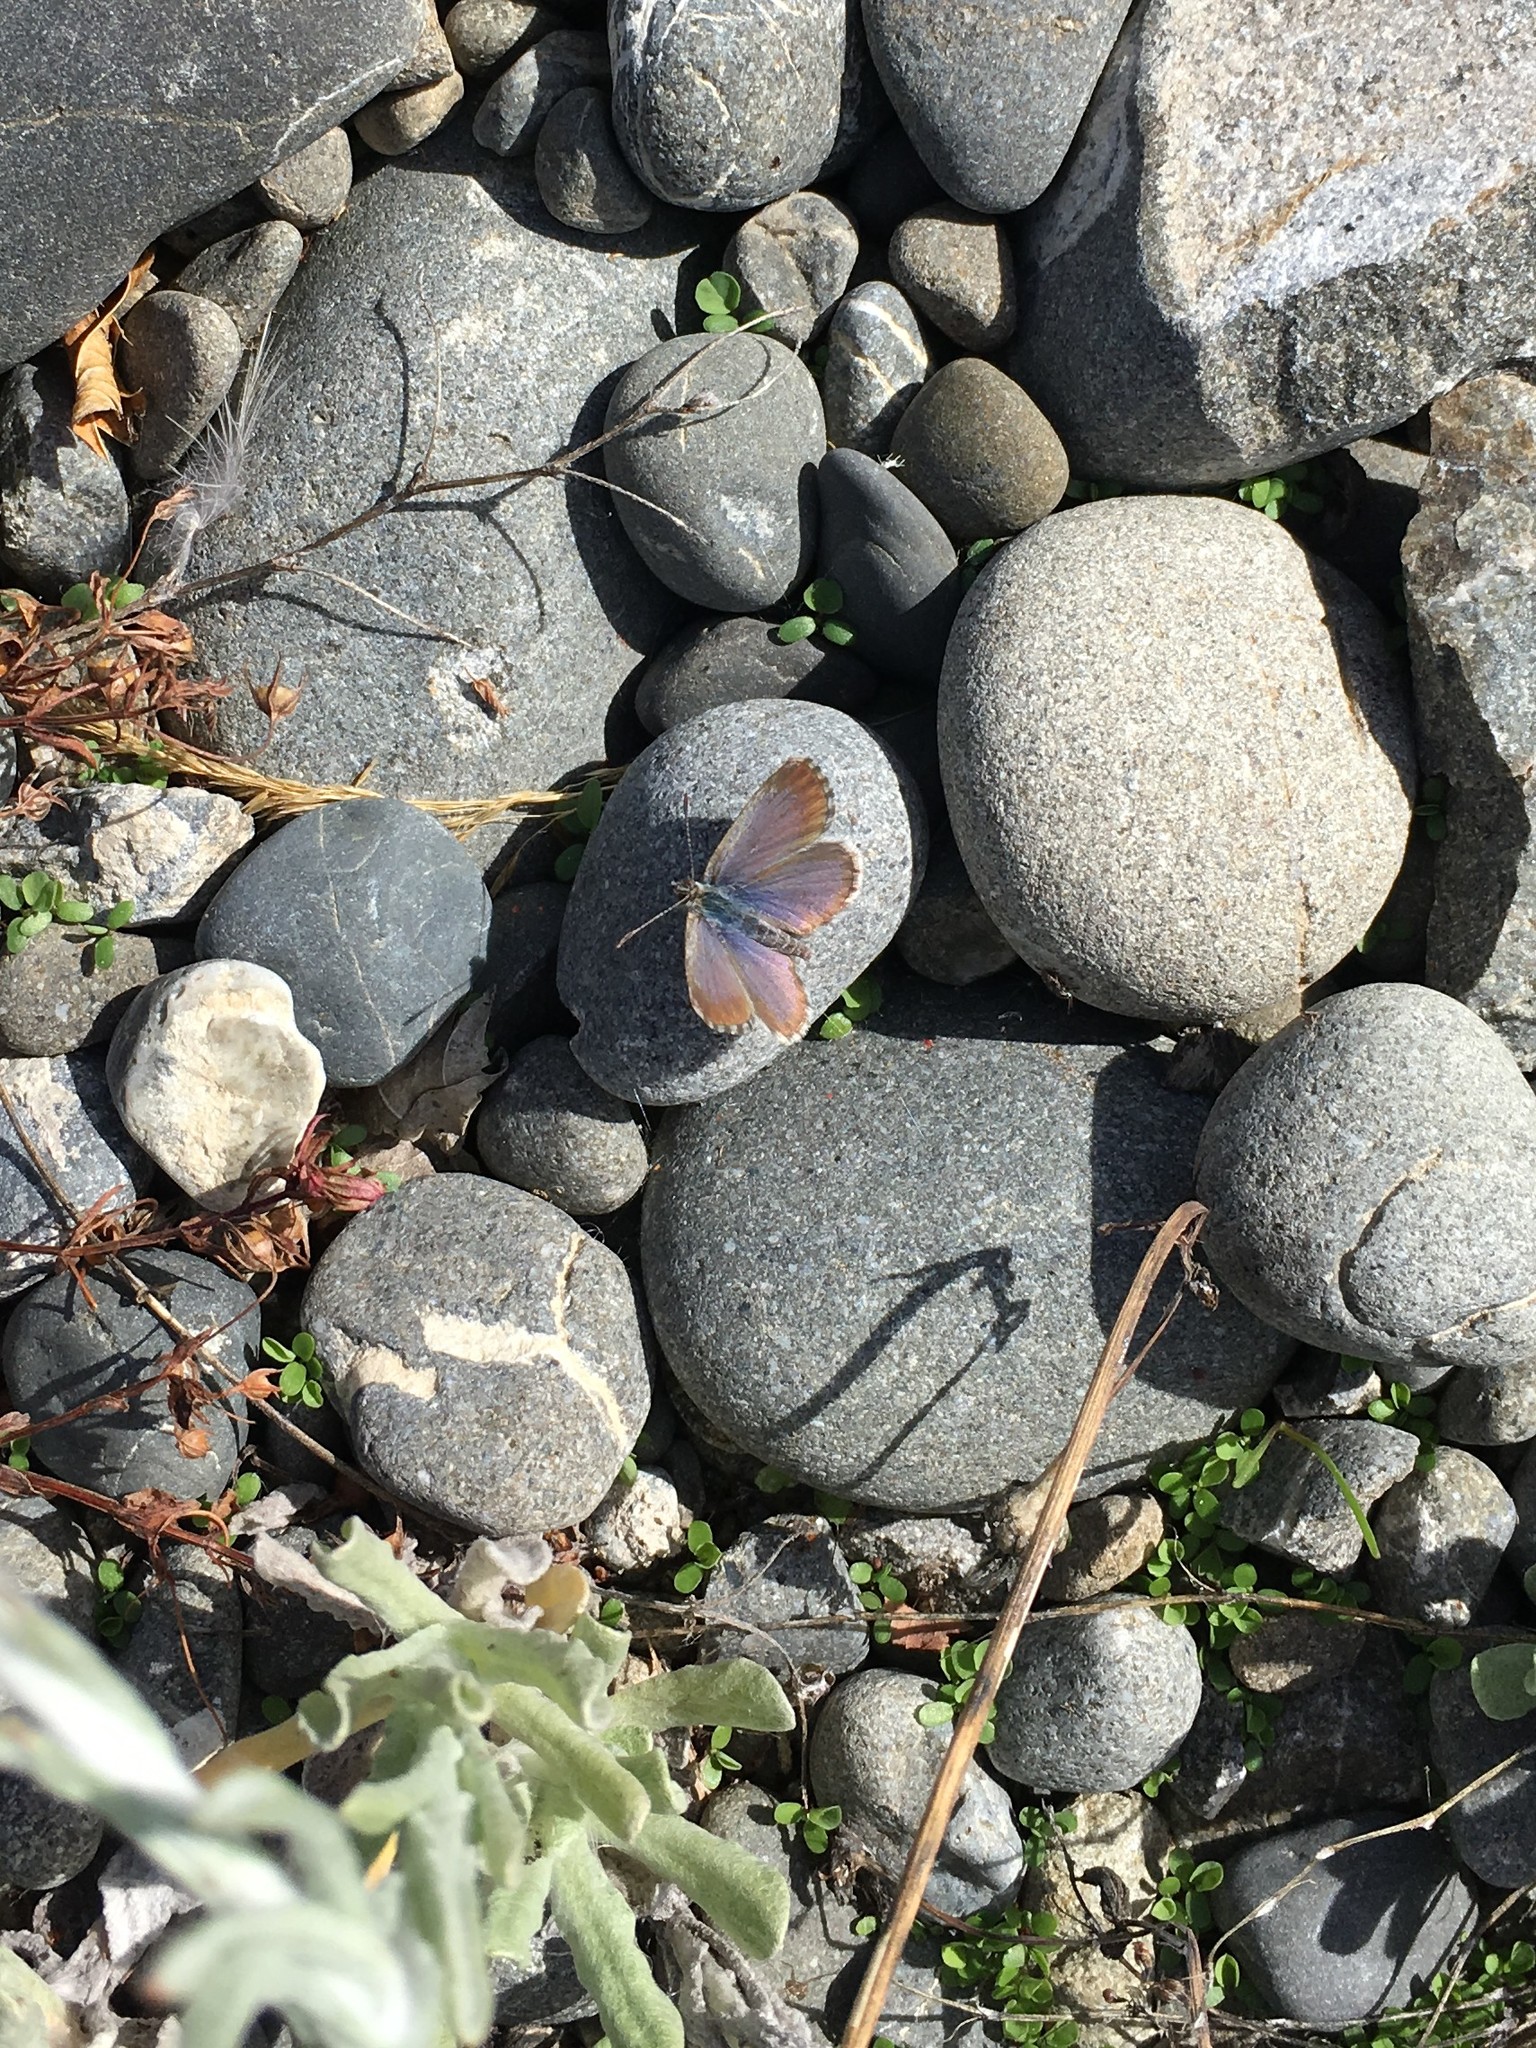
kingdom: Animalia
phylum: Arthropoda
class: Insecta
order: Lepidoptera
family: Lycaenidae
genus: Zizina
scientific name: Zizina oxleyi
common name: Southern blue
